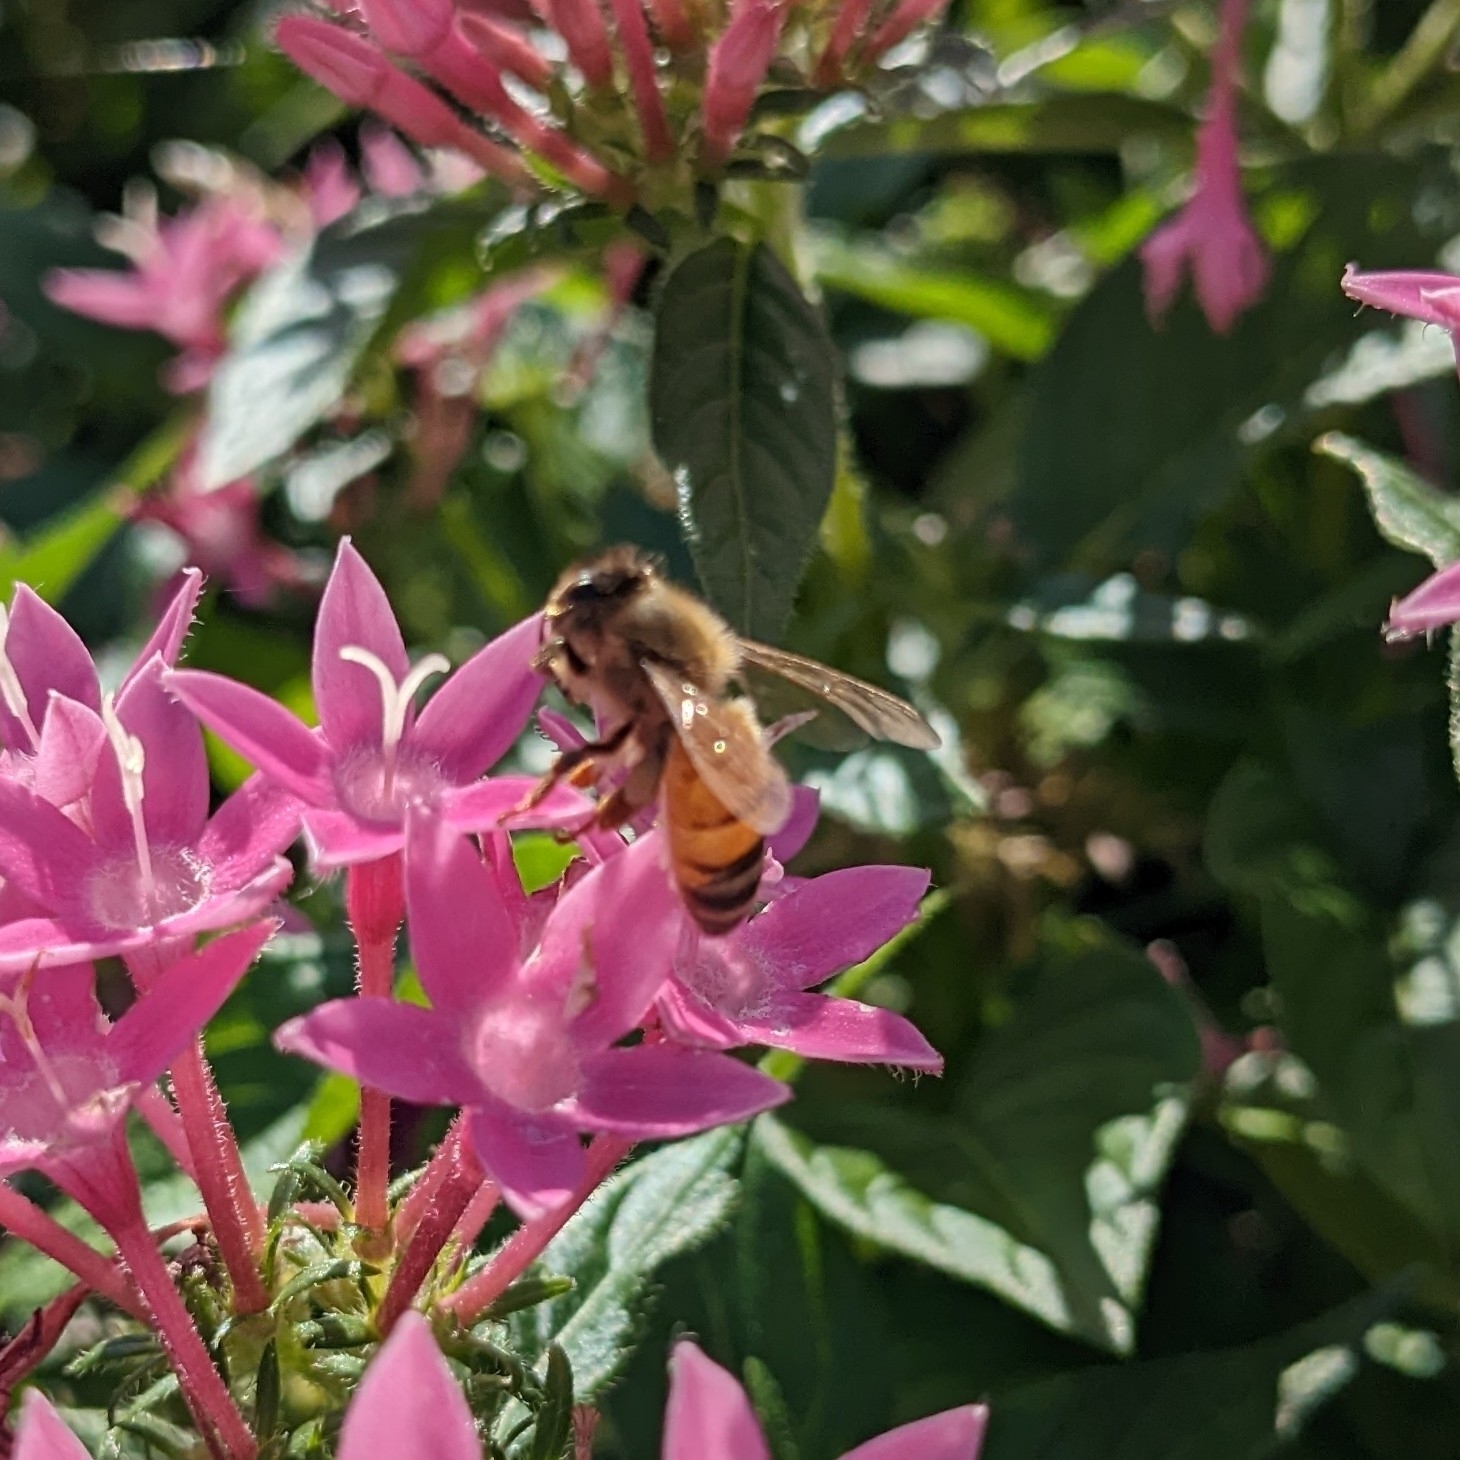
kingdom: Animalia
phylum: Arthropoda
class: Insecta
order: Hymenoptera
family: Apidae
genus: Apis
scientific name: Apis mellifera
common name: Honey bee
